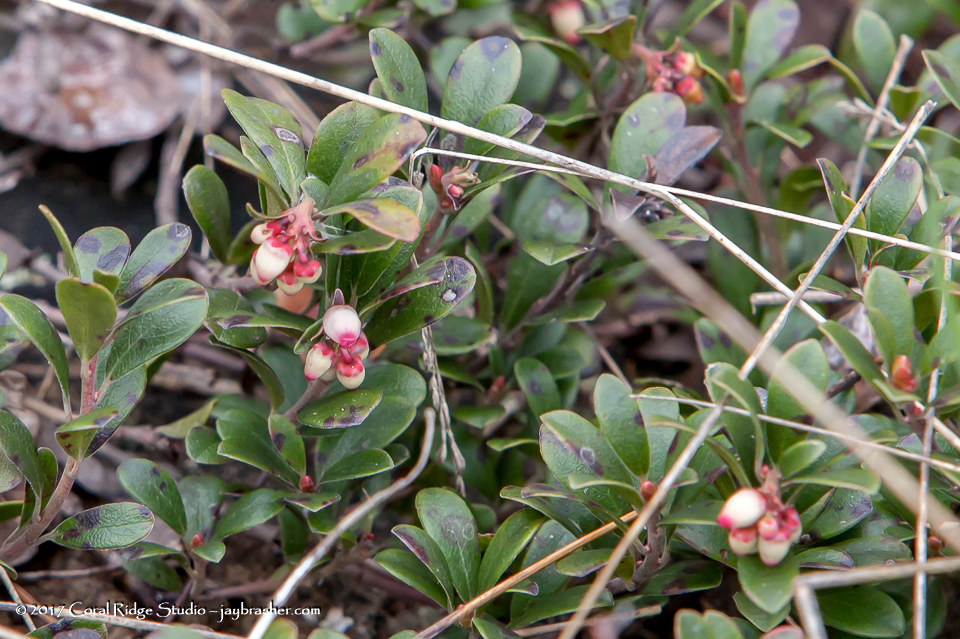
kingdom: Plantae
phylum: Tracheophyta
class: Magnoliopsida
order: Ericales
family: Ericaceae
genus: Arctostaphylos
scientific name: Arctostaphylos uva-ursi
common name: Bearberry
